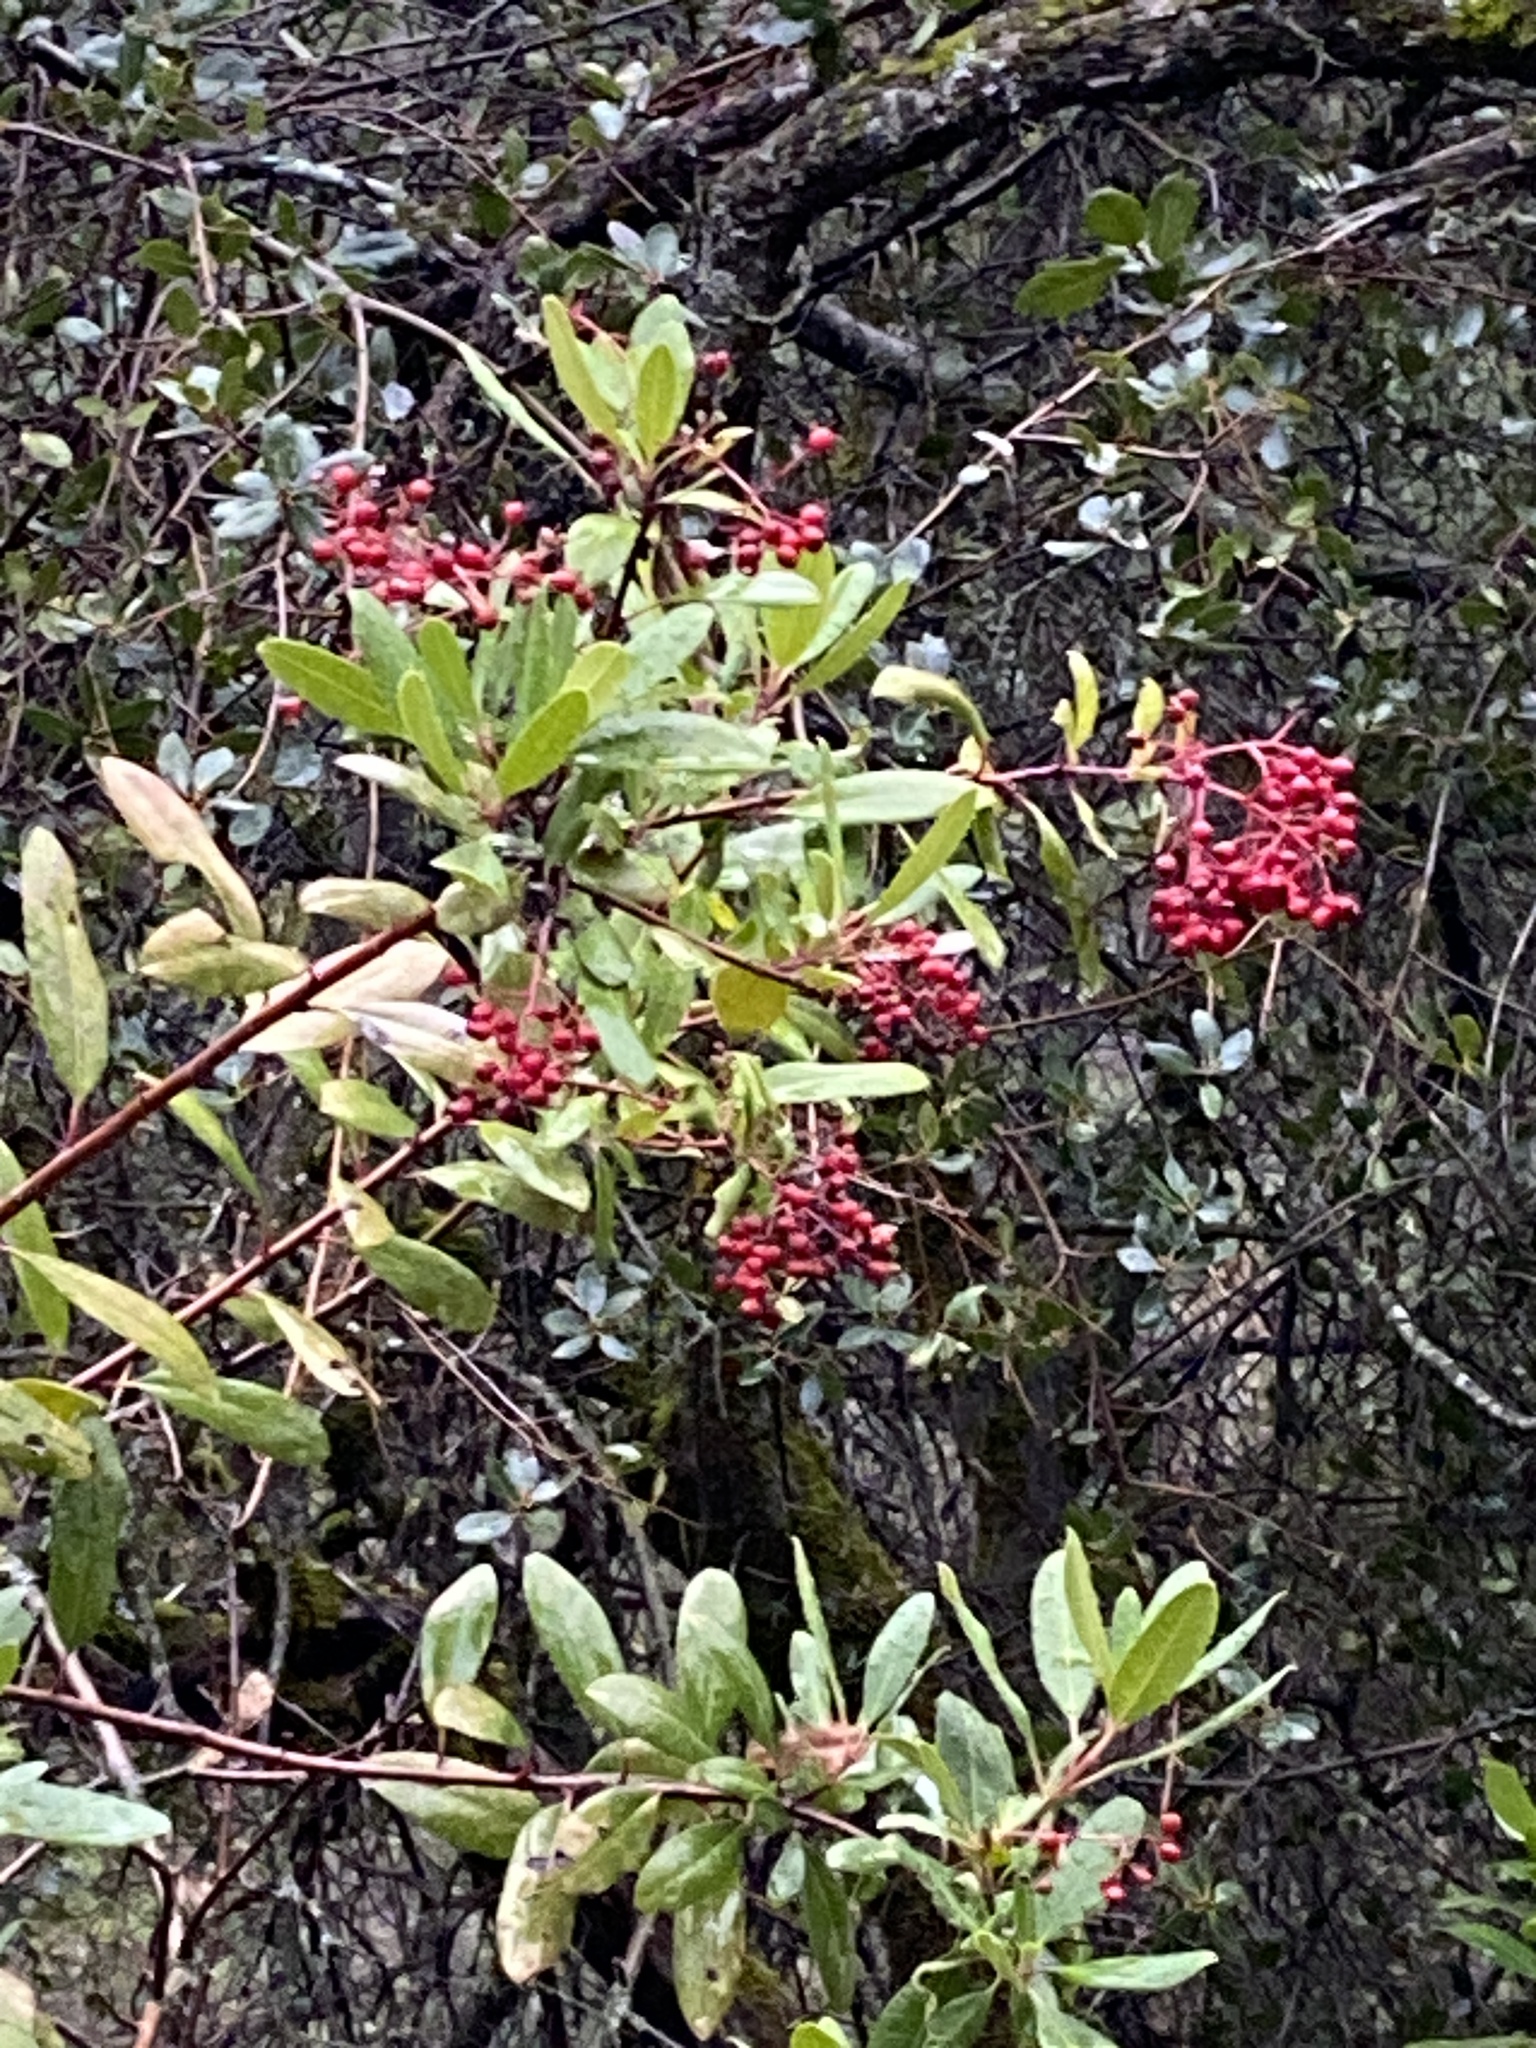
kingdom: Plantae
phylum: Tracheophyta
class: Magnoliopsida
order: Rosales
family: Rosaceae
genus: Heteromeles
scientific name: Heteromeles arbutifolia
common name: California-holly
